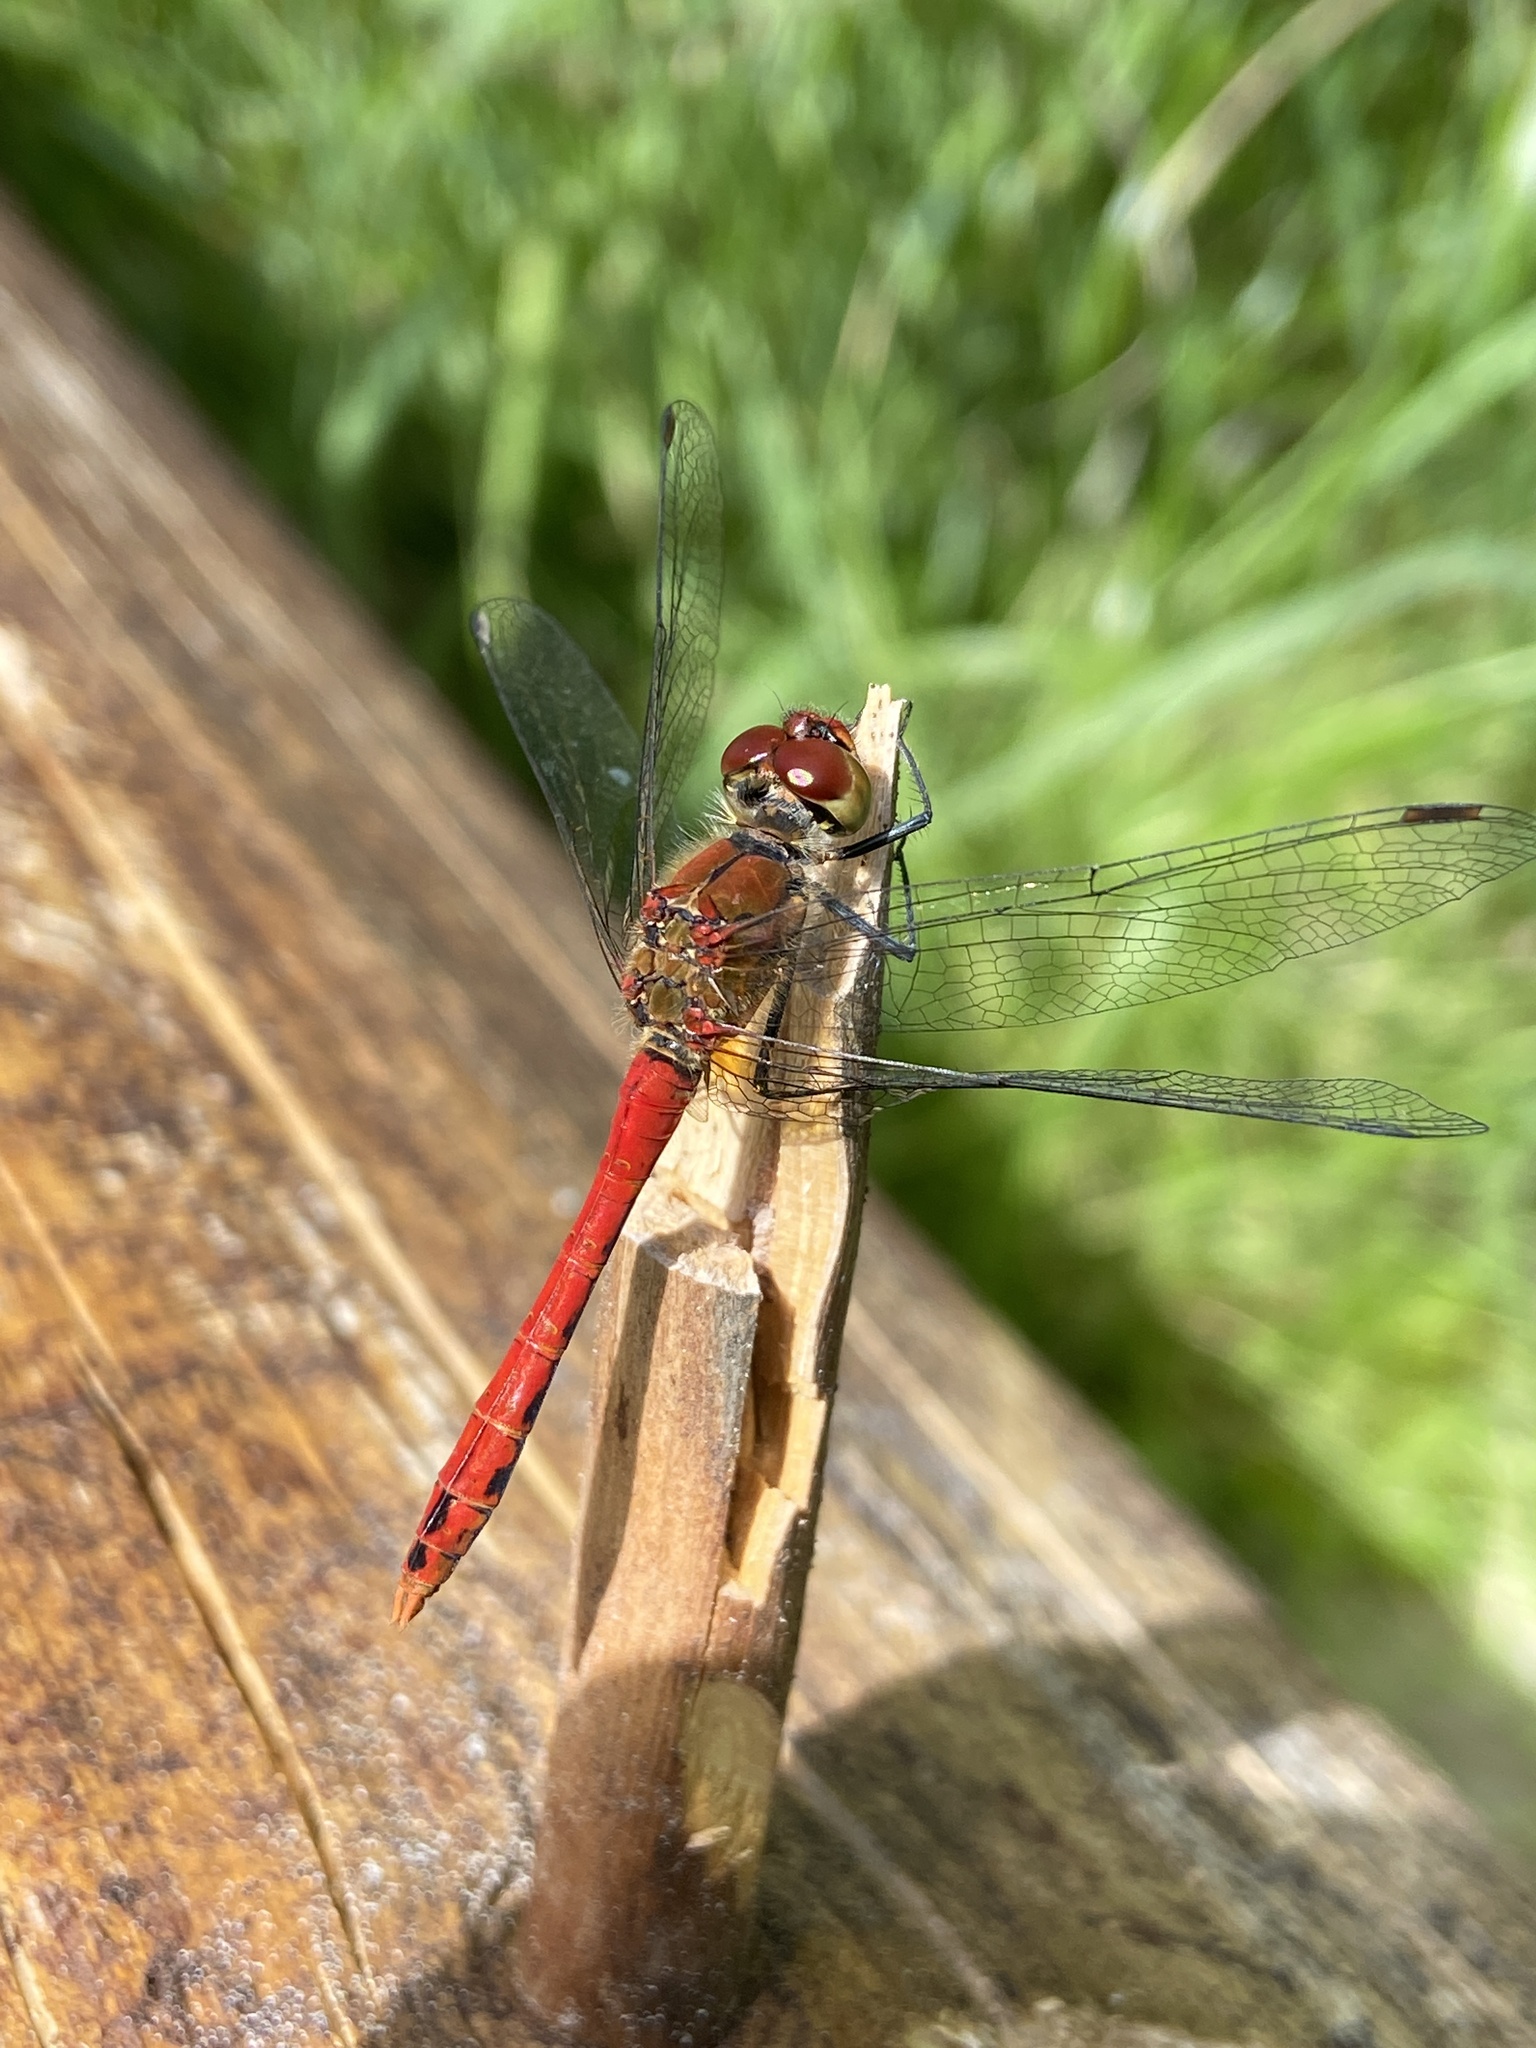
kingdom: Animalia
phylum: Arthropoda
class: Insecta
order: Odonata
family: Libellulidae
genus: Sympetrum
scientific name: Sympetrum sanguineum
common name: Ruddy darter
